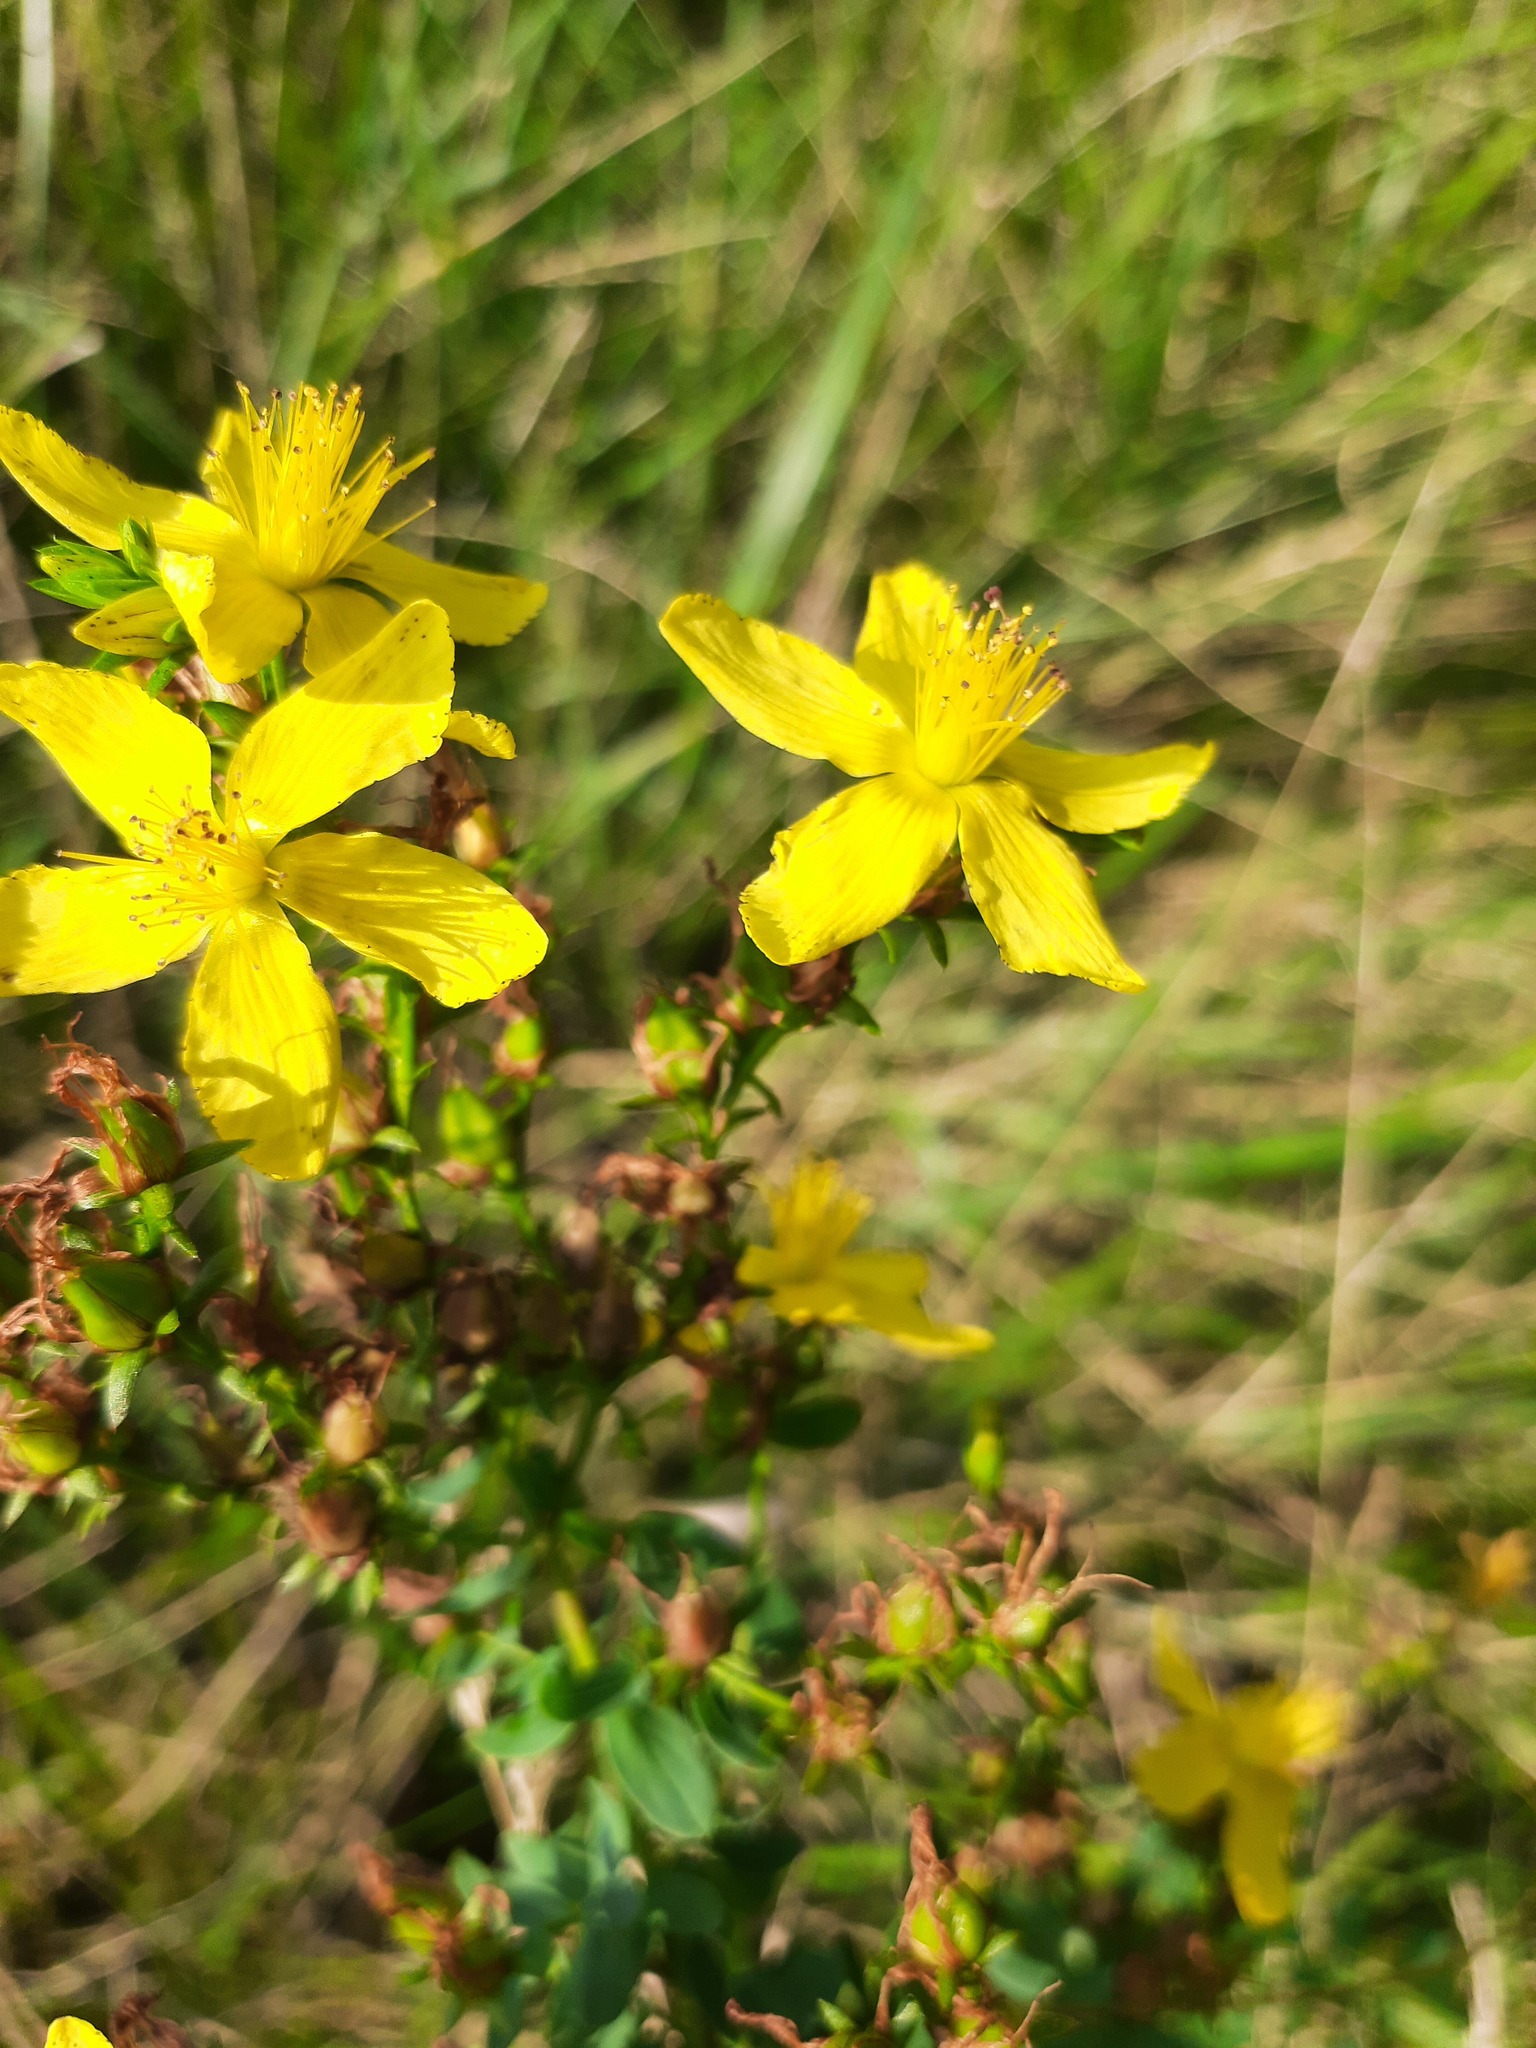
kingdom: Plantae
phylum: Tracheophyta
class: Magnoliopsida
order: Malpighiales
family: Hypericaceae
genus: Hypericum
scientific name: Hypericum perforatum
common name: Common st. johnswort
